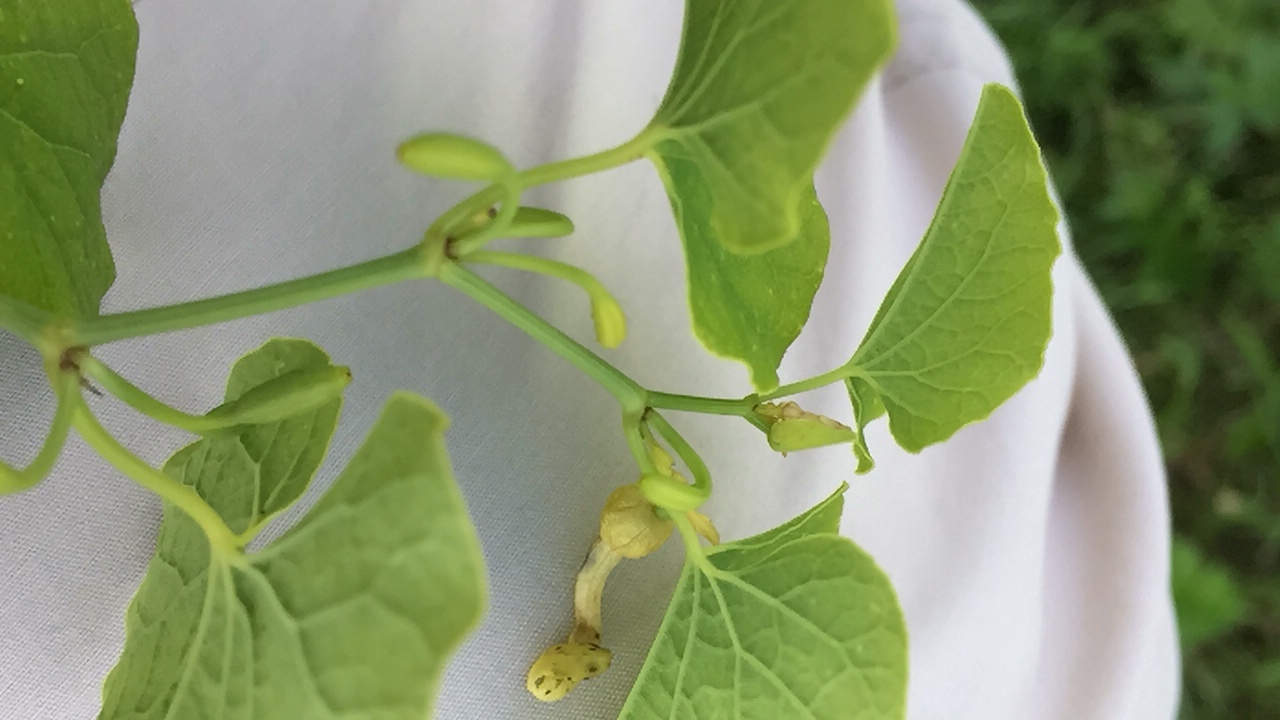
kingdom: Plantae
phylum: Tracheophyta
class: Magnoliopsida
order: Piperales
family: Aristolochiaceae
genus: Aristolochia
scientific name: Aristolochia clematitis
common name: Birthwort
